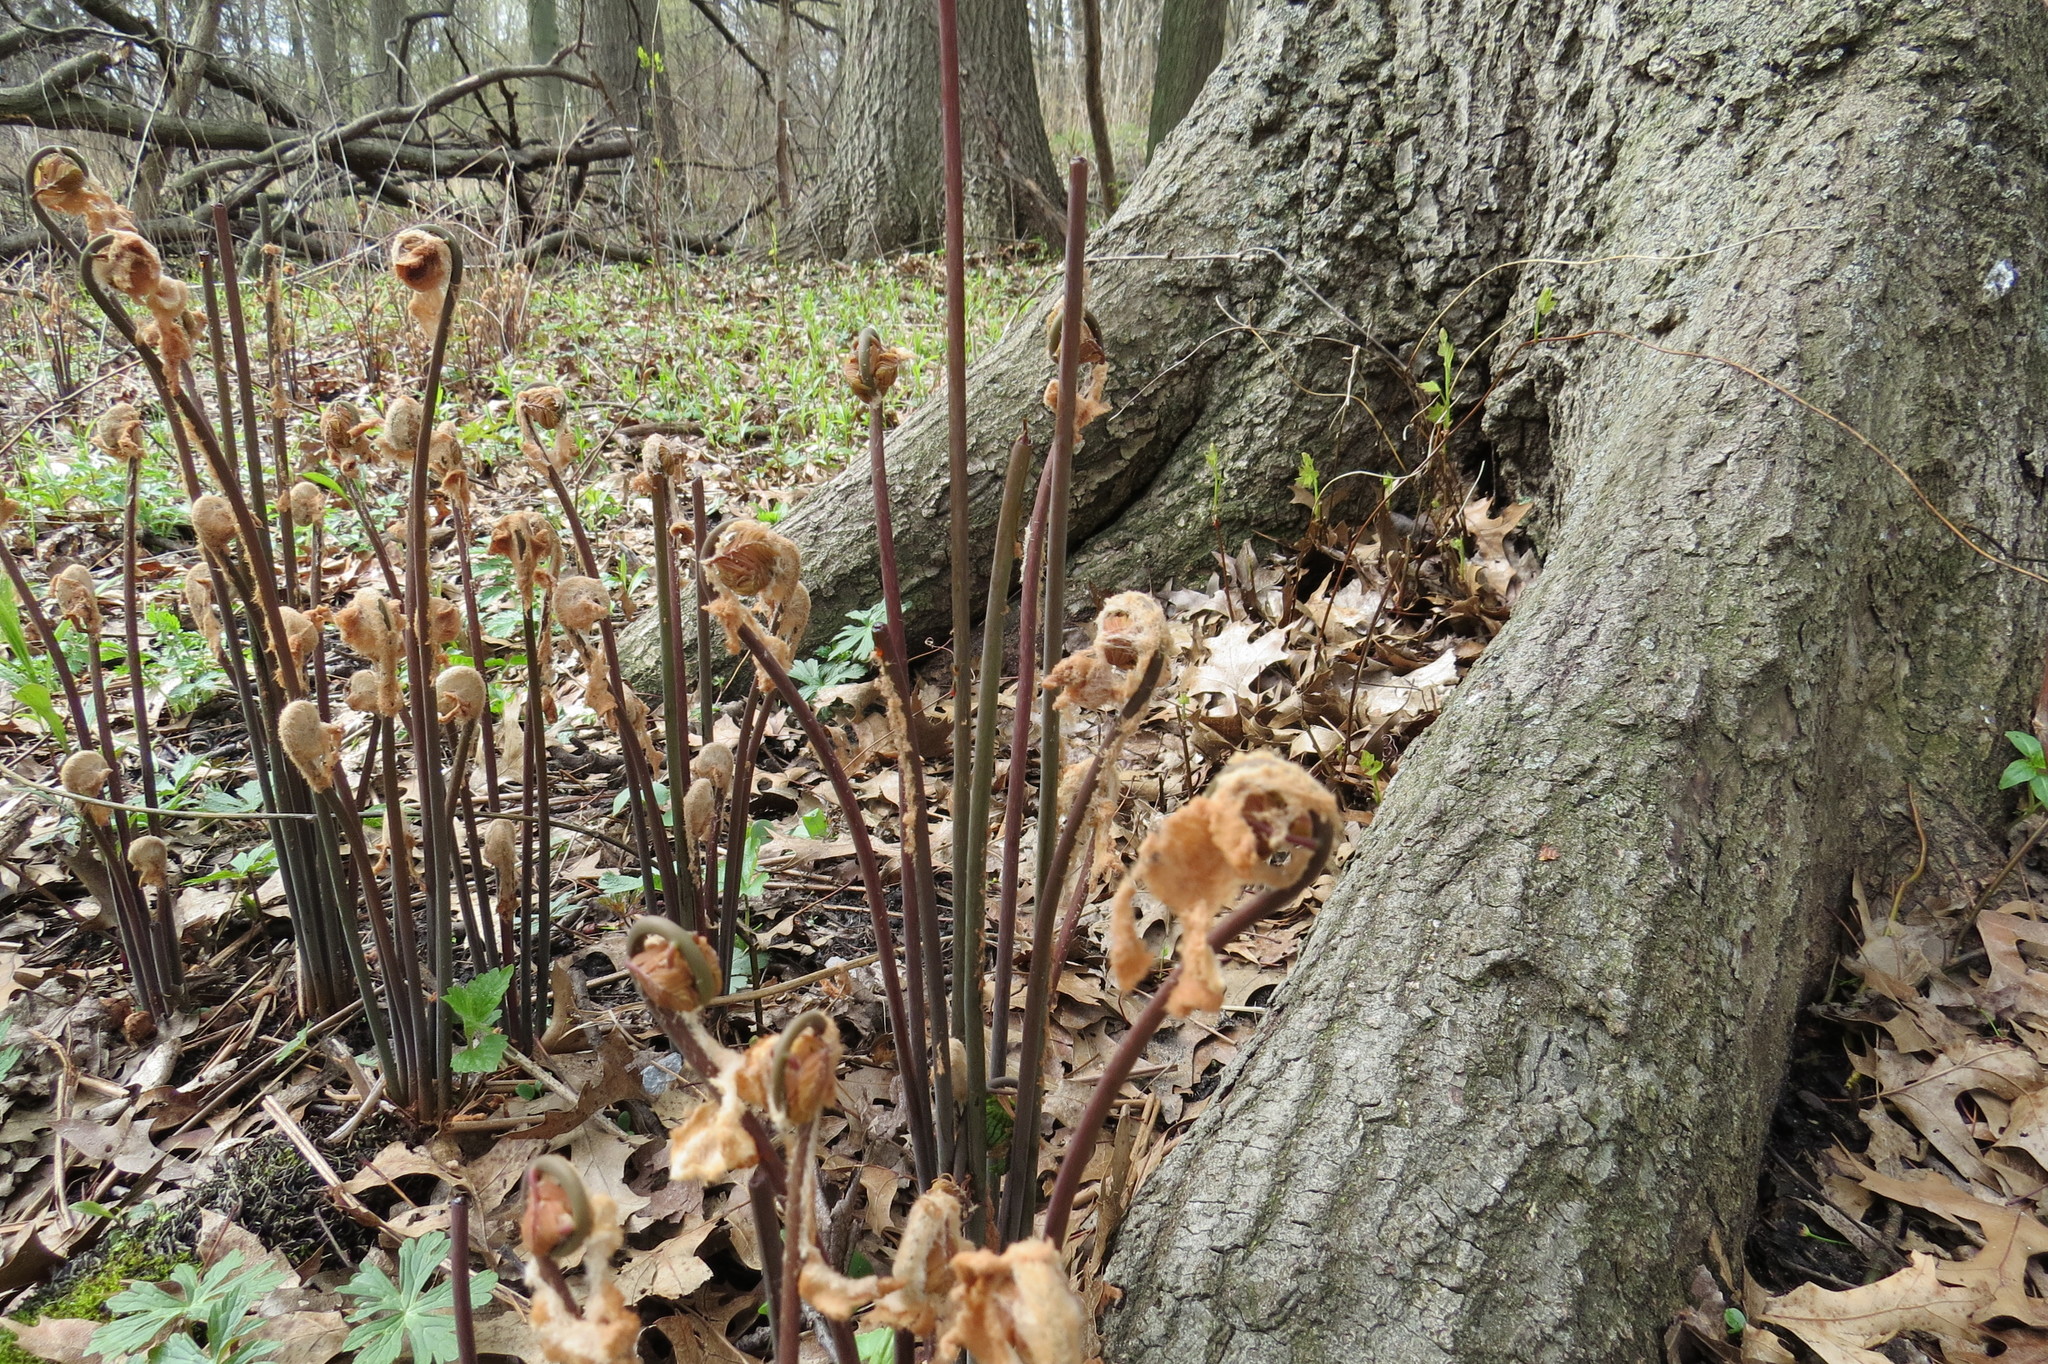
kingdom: Plantae
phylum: Tracheophyta
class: Polypodiopsida
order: Osmundales
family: Osmundaceae
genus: Osmunda
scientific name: Osmunda spectabilis
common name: American royal fern
